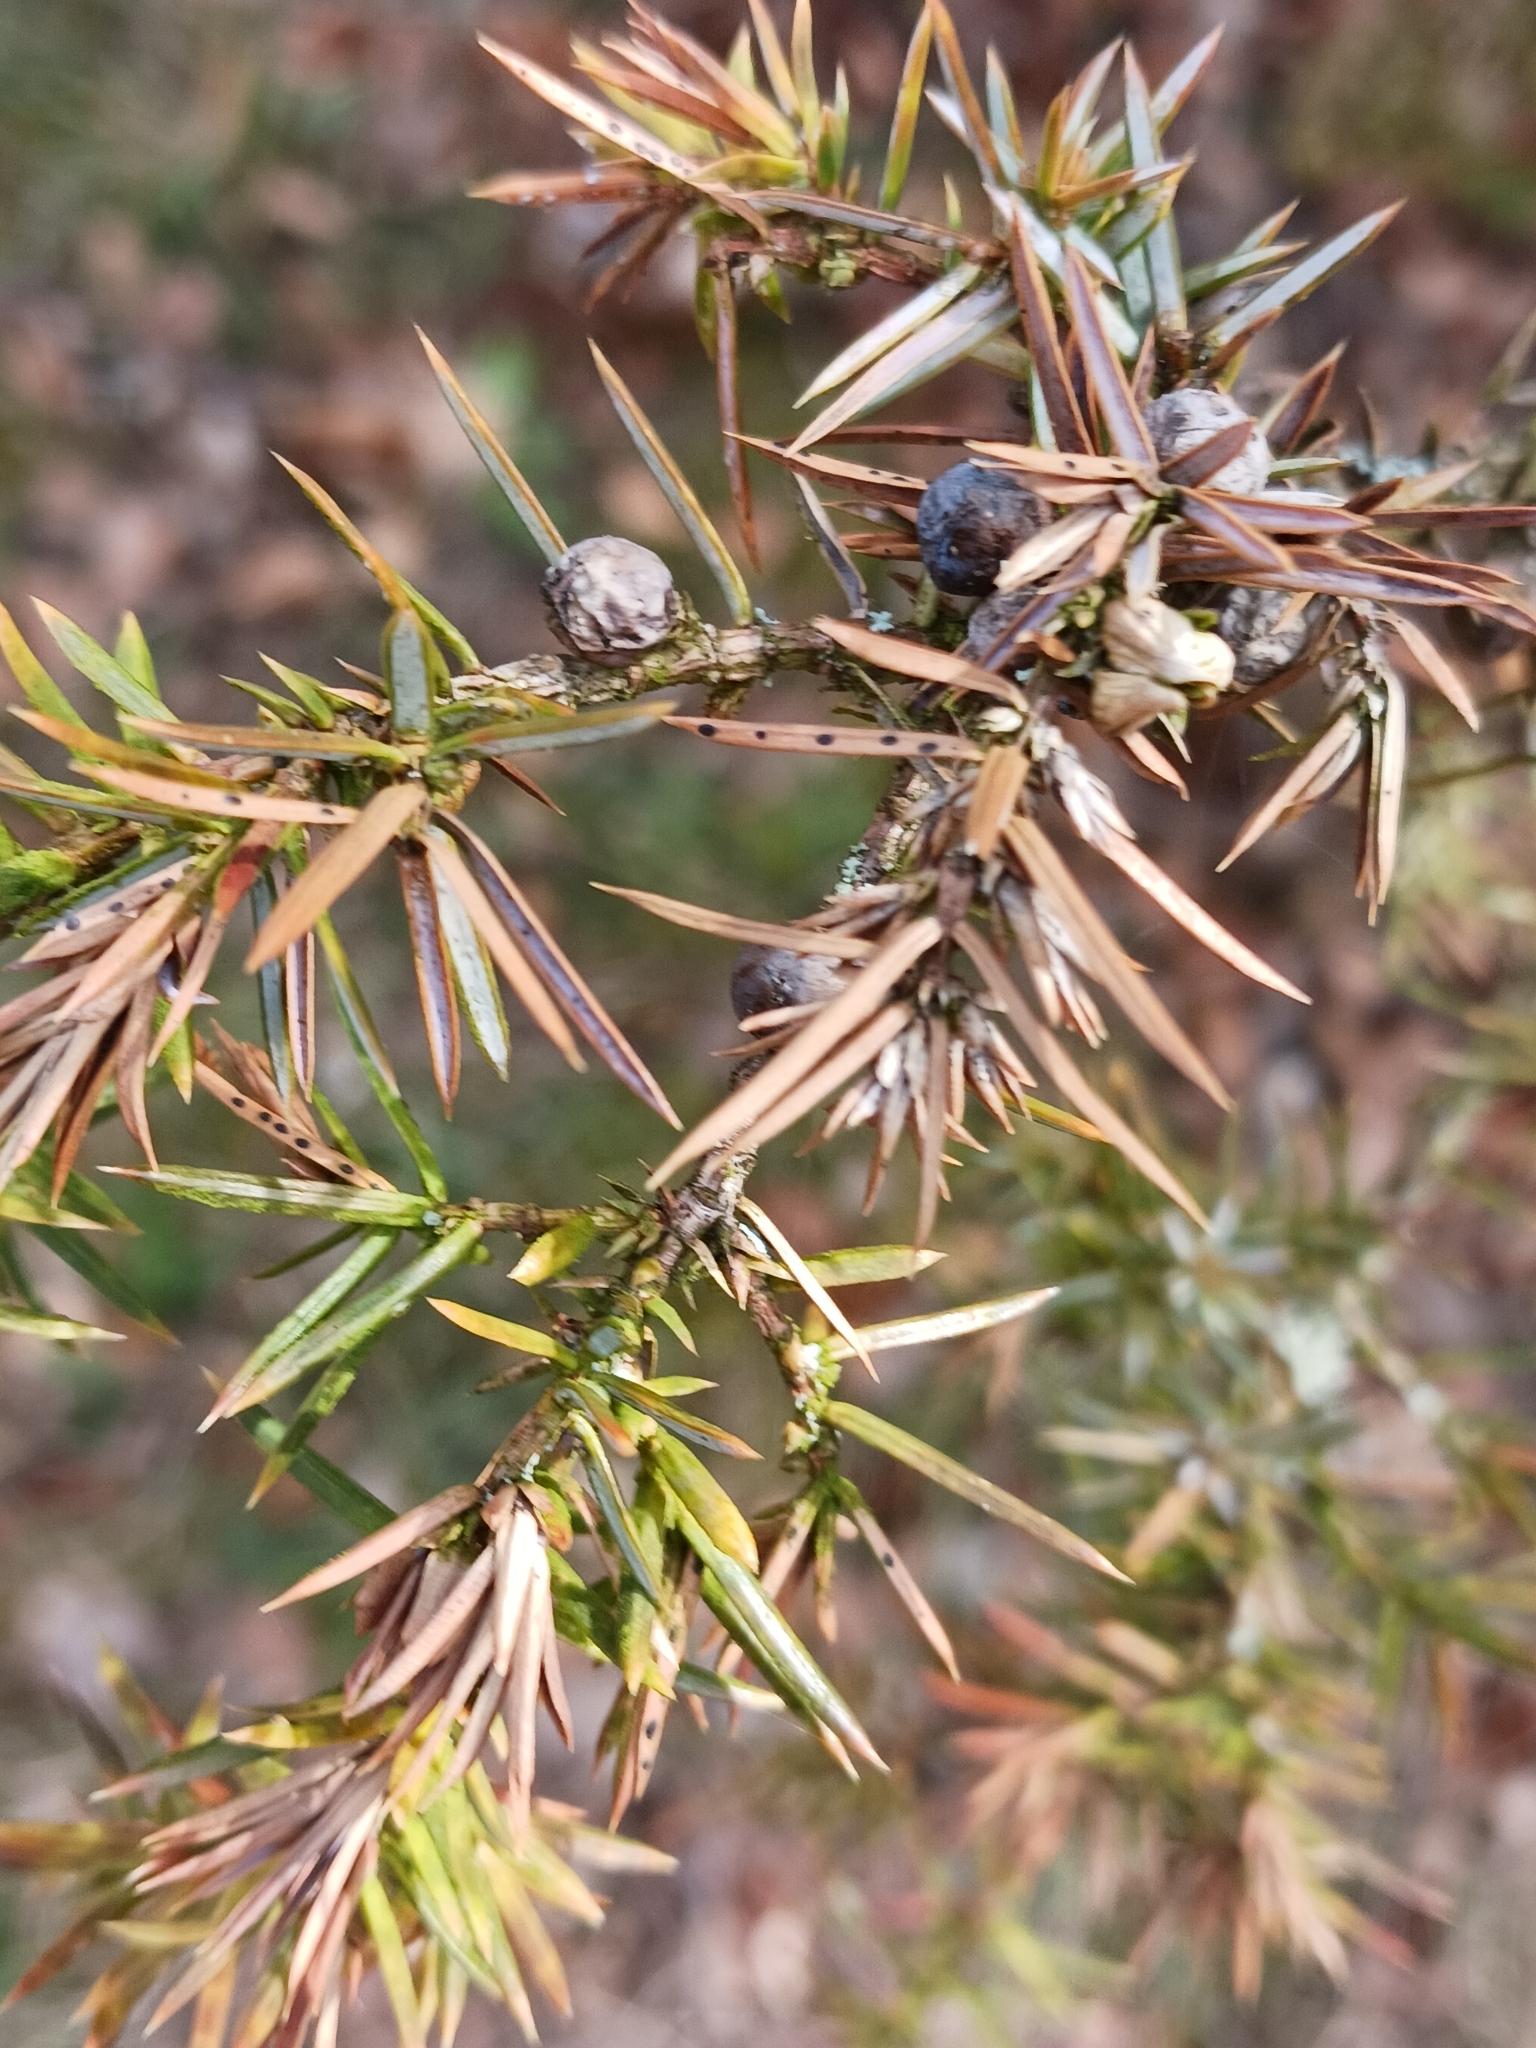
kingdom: Plantae
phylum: Tracheophyta
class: Pinopsida
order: Pinales
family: Cupressaceae
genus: Juniperus
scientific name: Juniperus communis
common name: Common juniper
